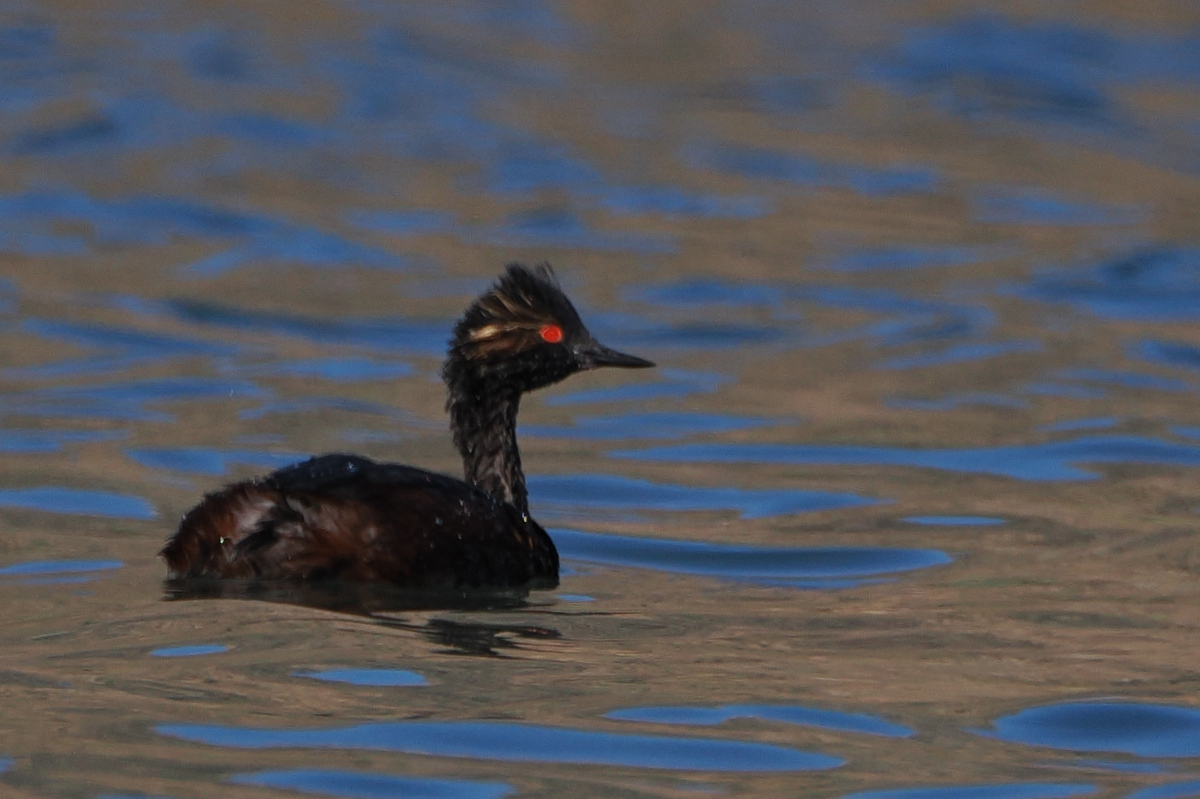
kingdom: Animalia
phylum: Chordata
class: Aves
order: Podicipediformes
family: Podicipedidae
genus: Podiceps
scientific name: Podiceps nigricollis
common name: Black-necked grebe
